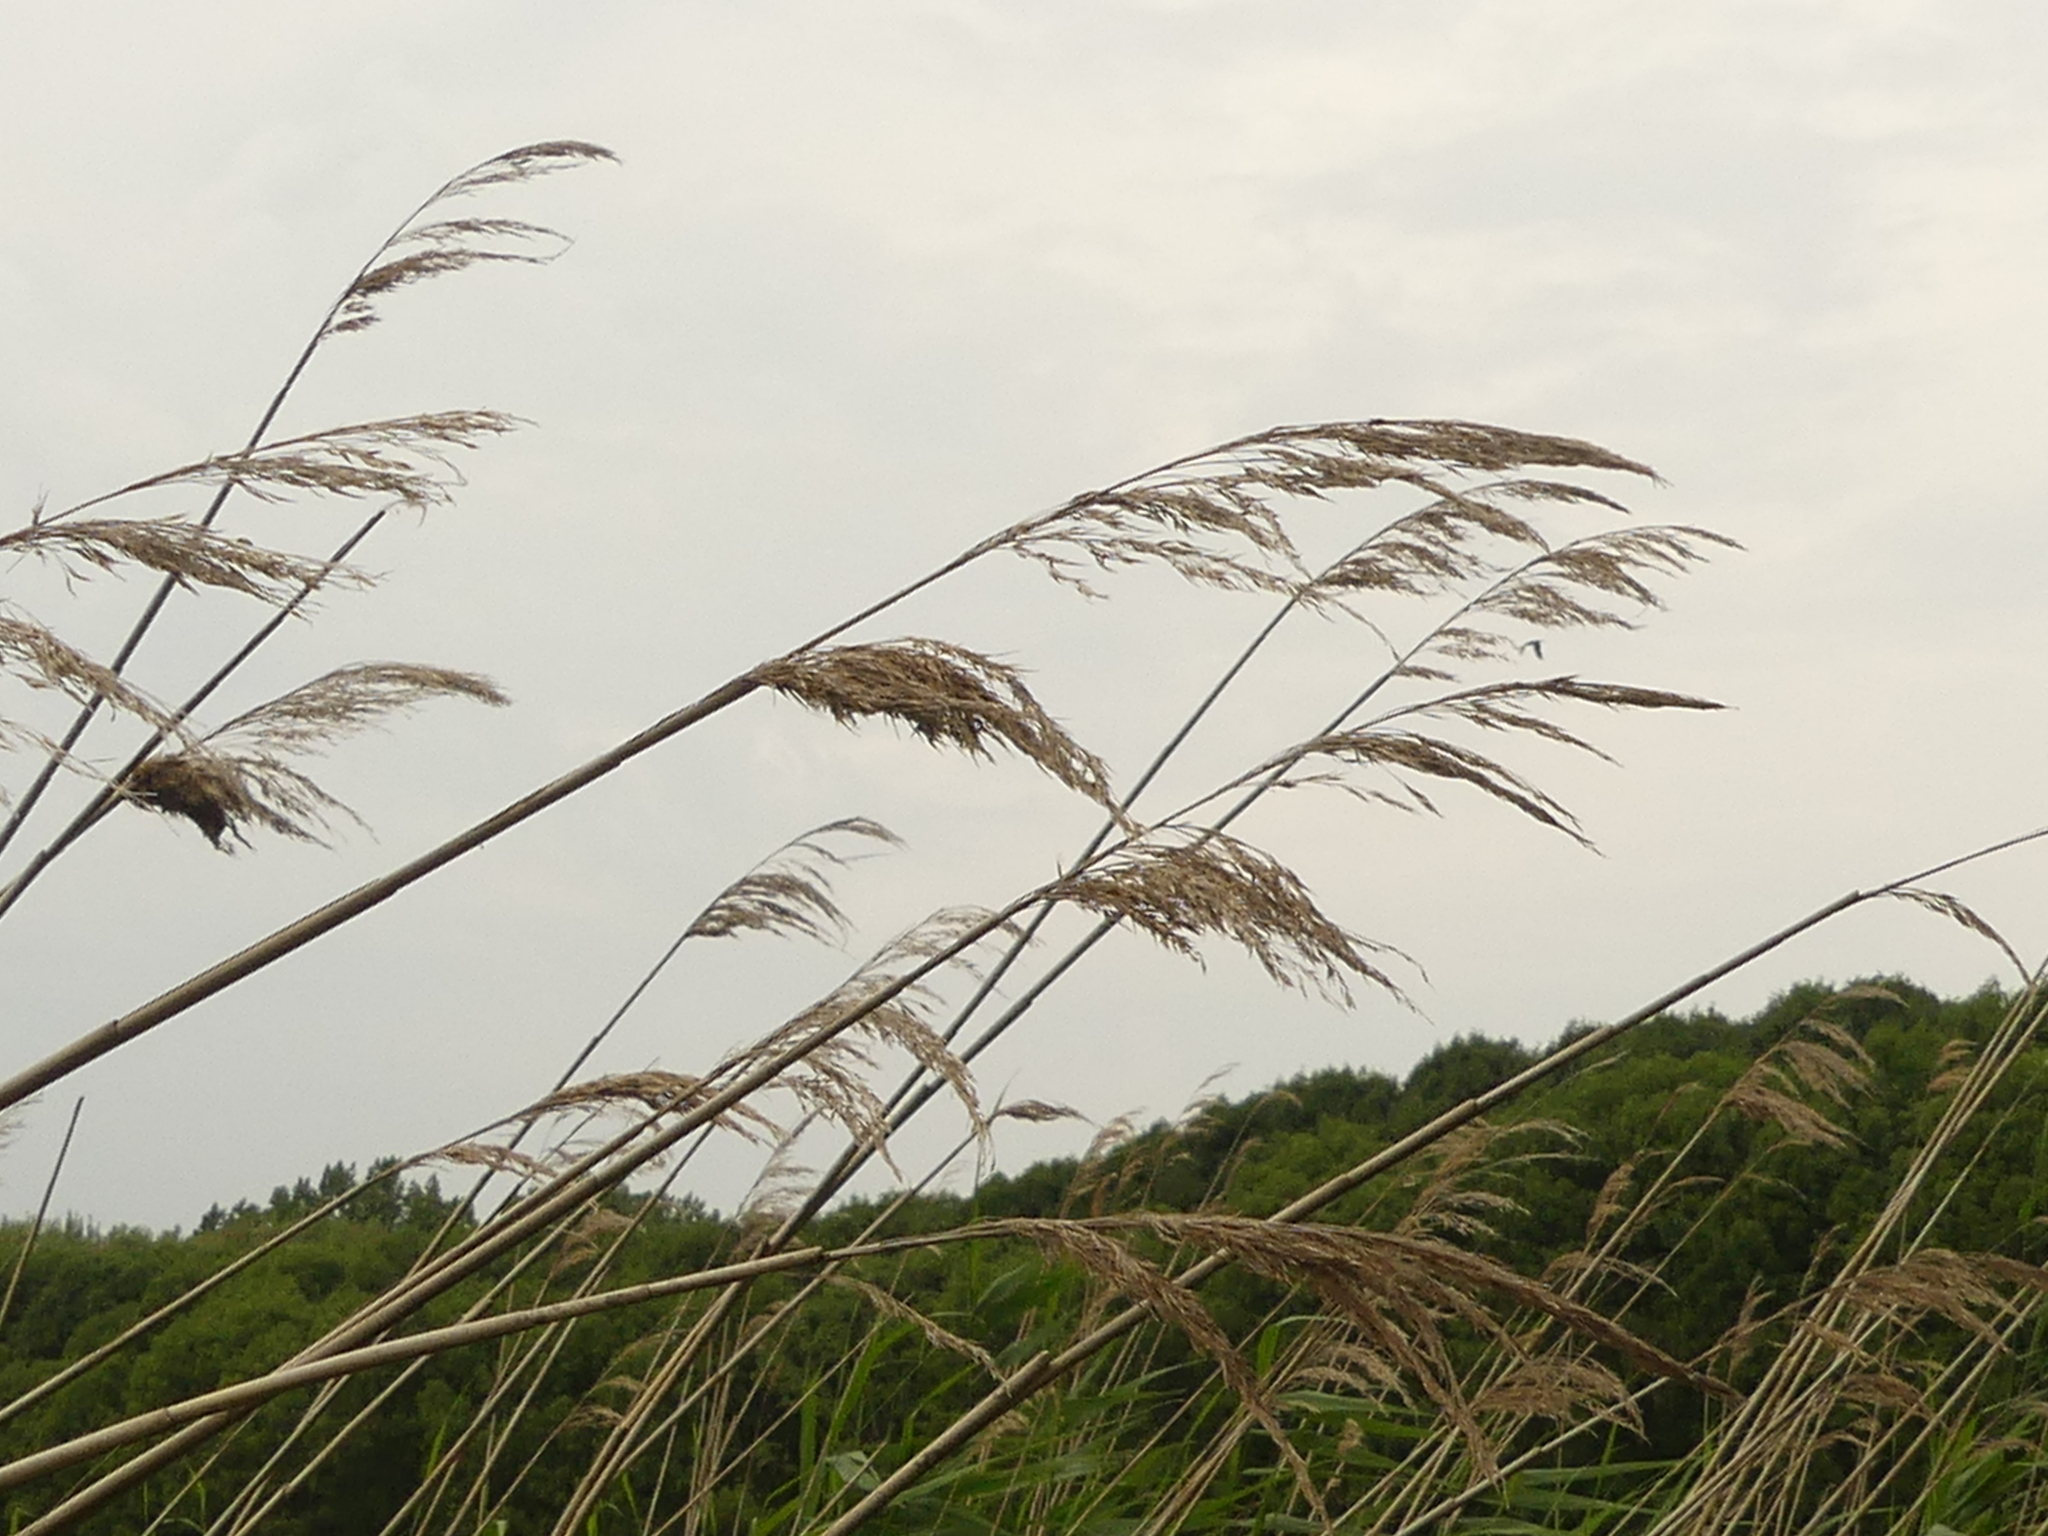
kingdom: Plantae
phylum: Tracheophyta
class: Liliopsida
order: Poales
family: Poaceae
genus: Phragmites
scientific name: Phragmites australis
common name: Common reed
